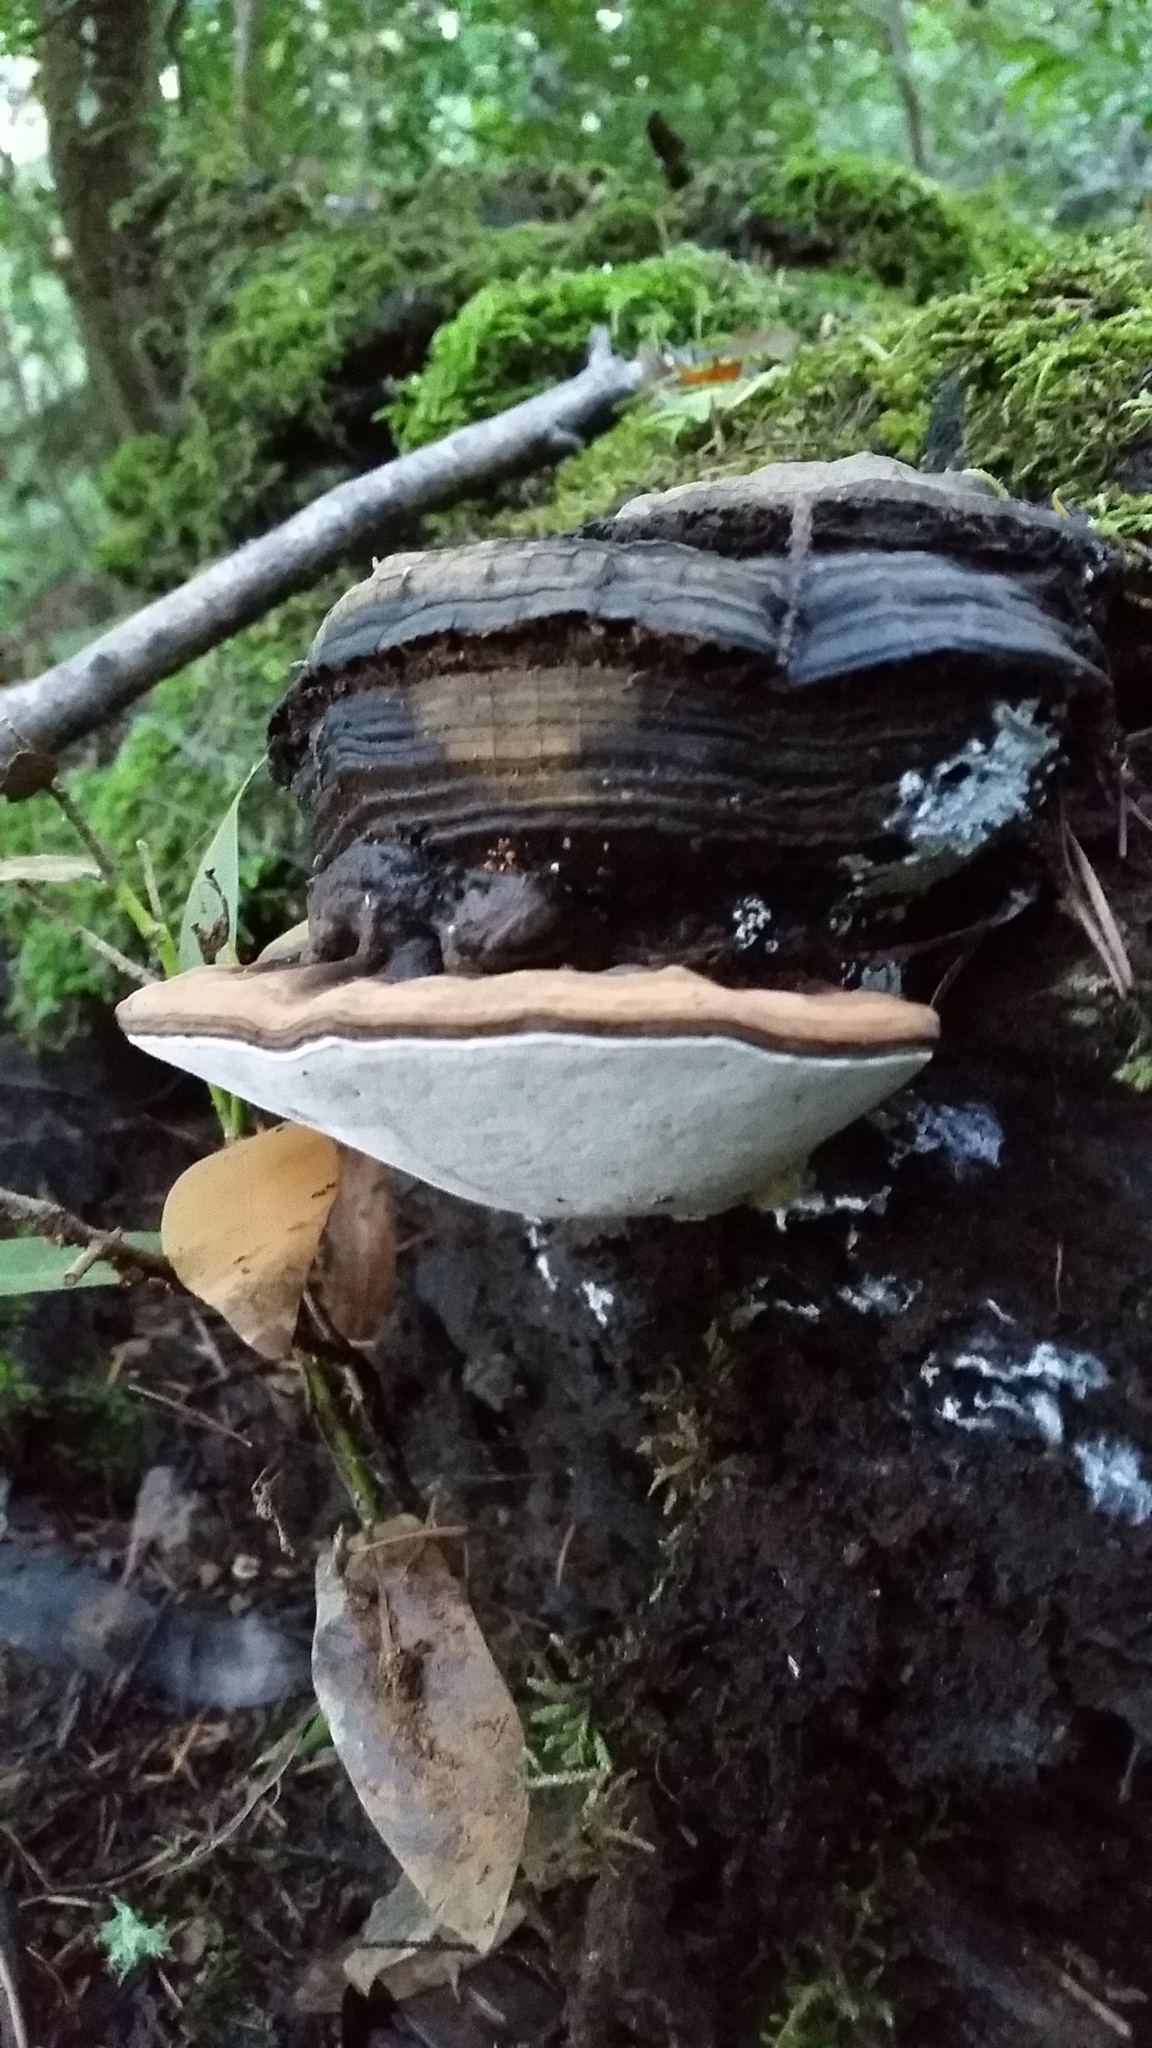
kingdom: Fungi
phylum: Basidiomycota
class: Agaricomycetes
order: Polyporales
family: Polyporaceae
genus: Ganoderma
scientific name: Ganoderma brownii
